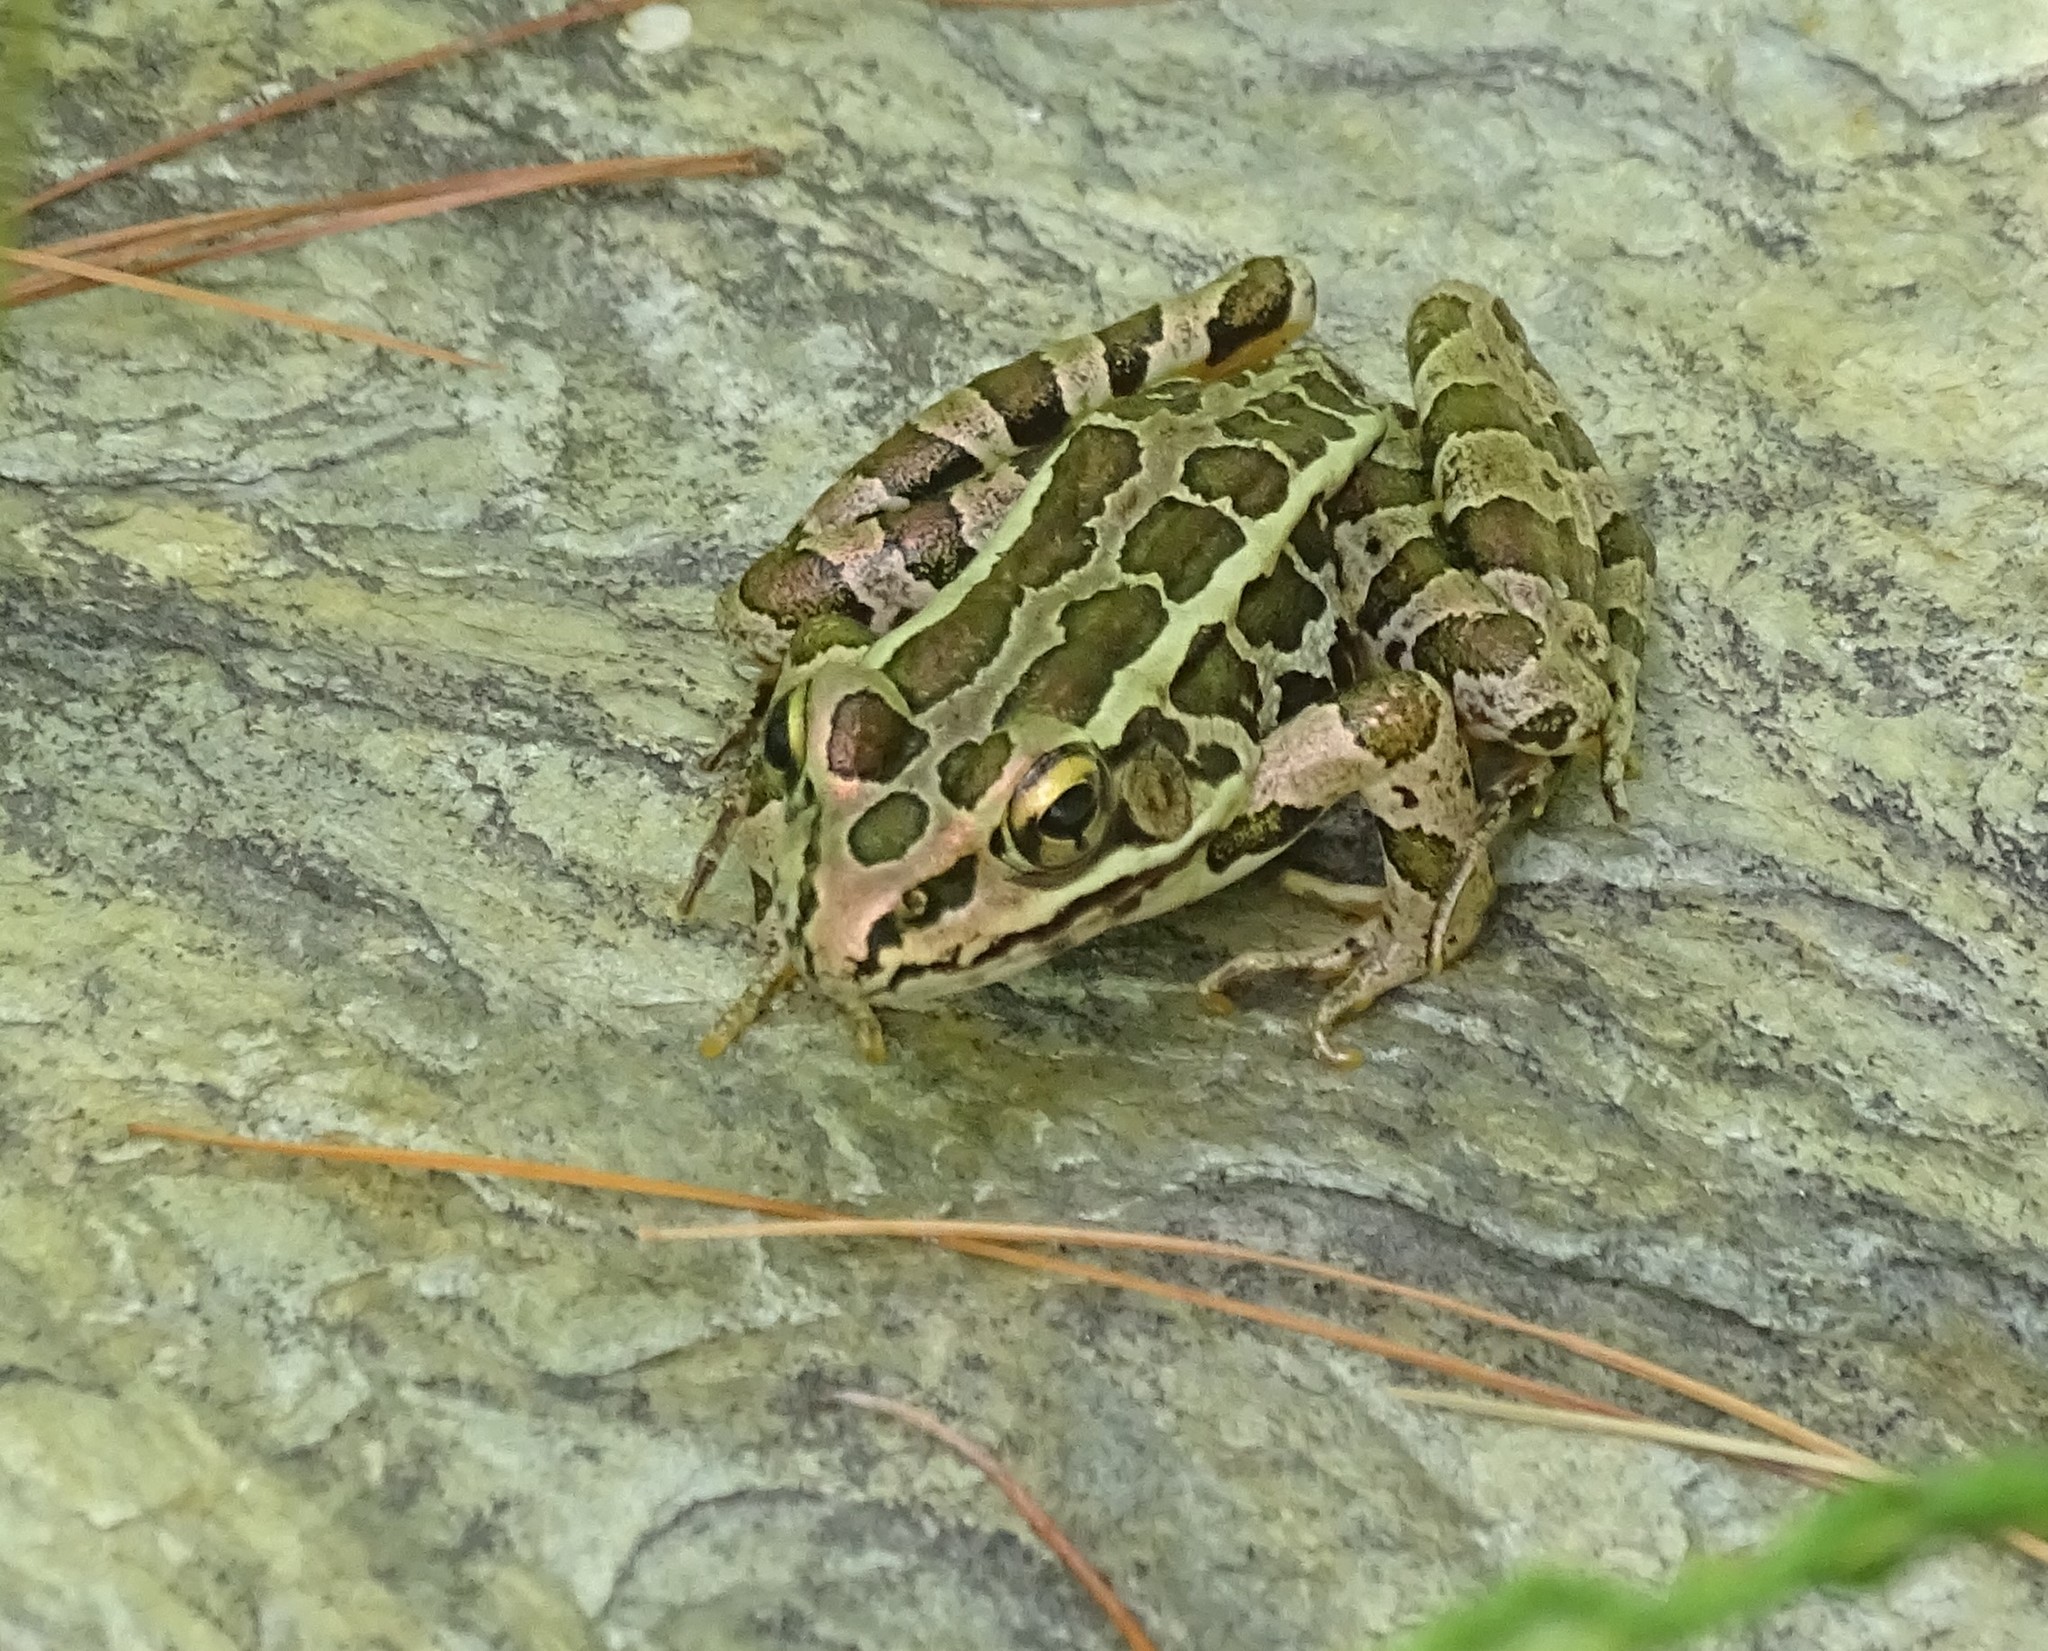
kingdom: Animalia
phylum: Chordata
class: Amphibia
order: Anura
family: Ranidae
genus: Lithobates
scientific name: Lithobates palustris
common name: Pickerel frog
